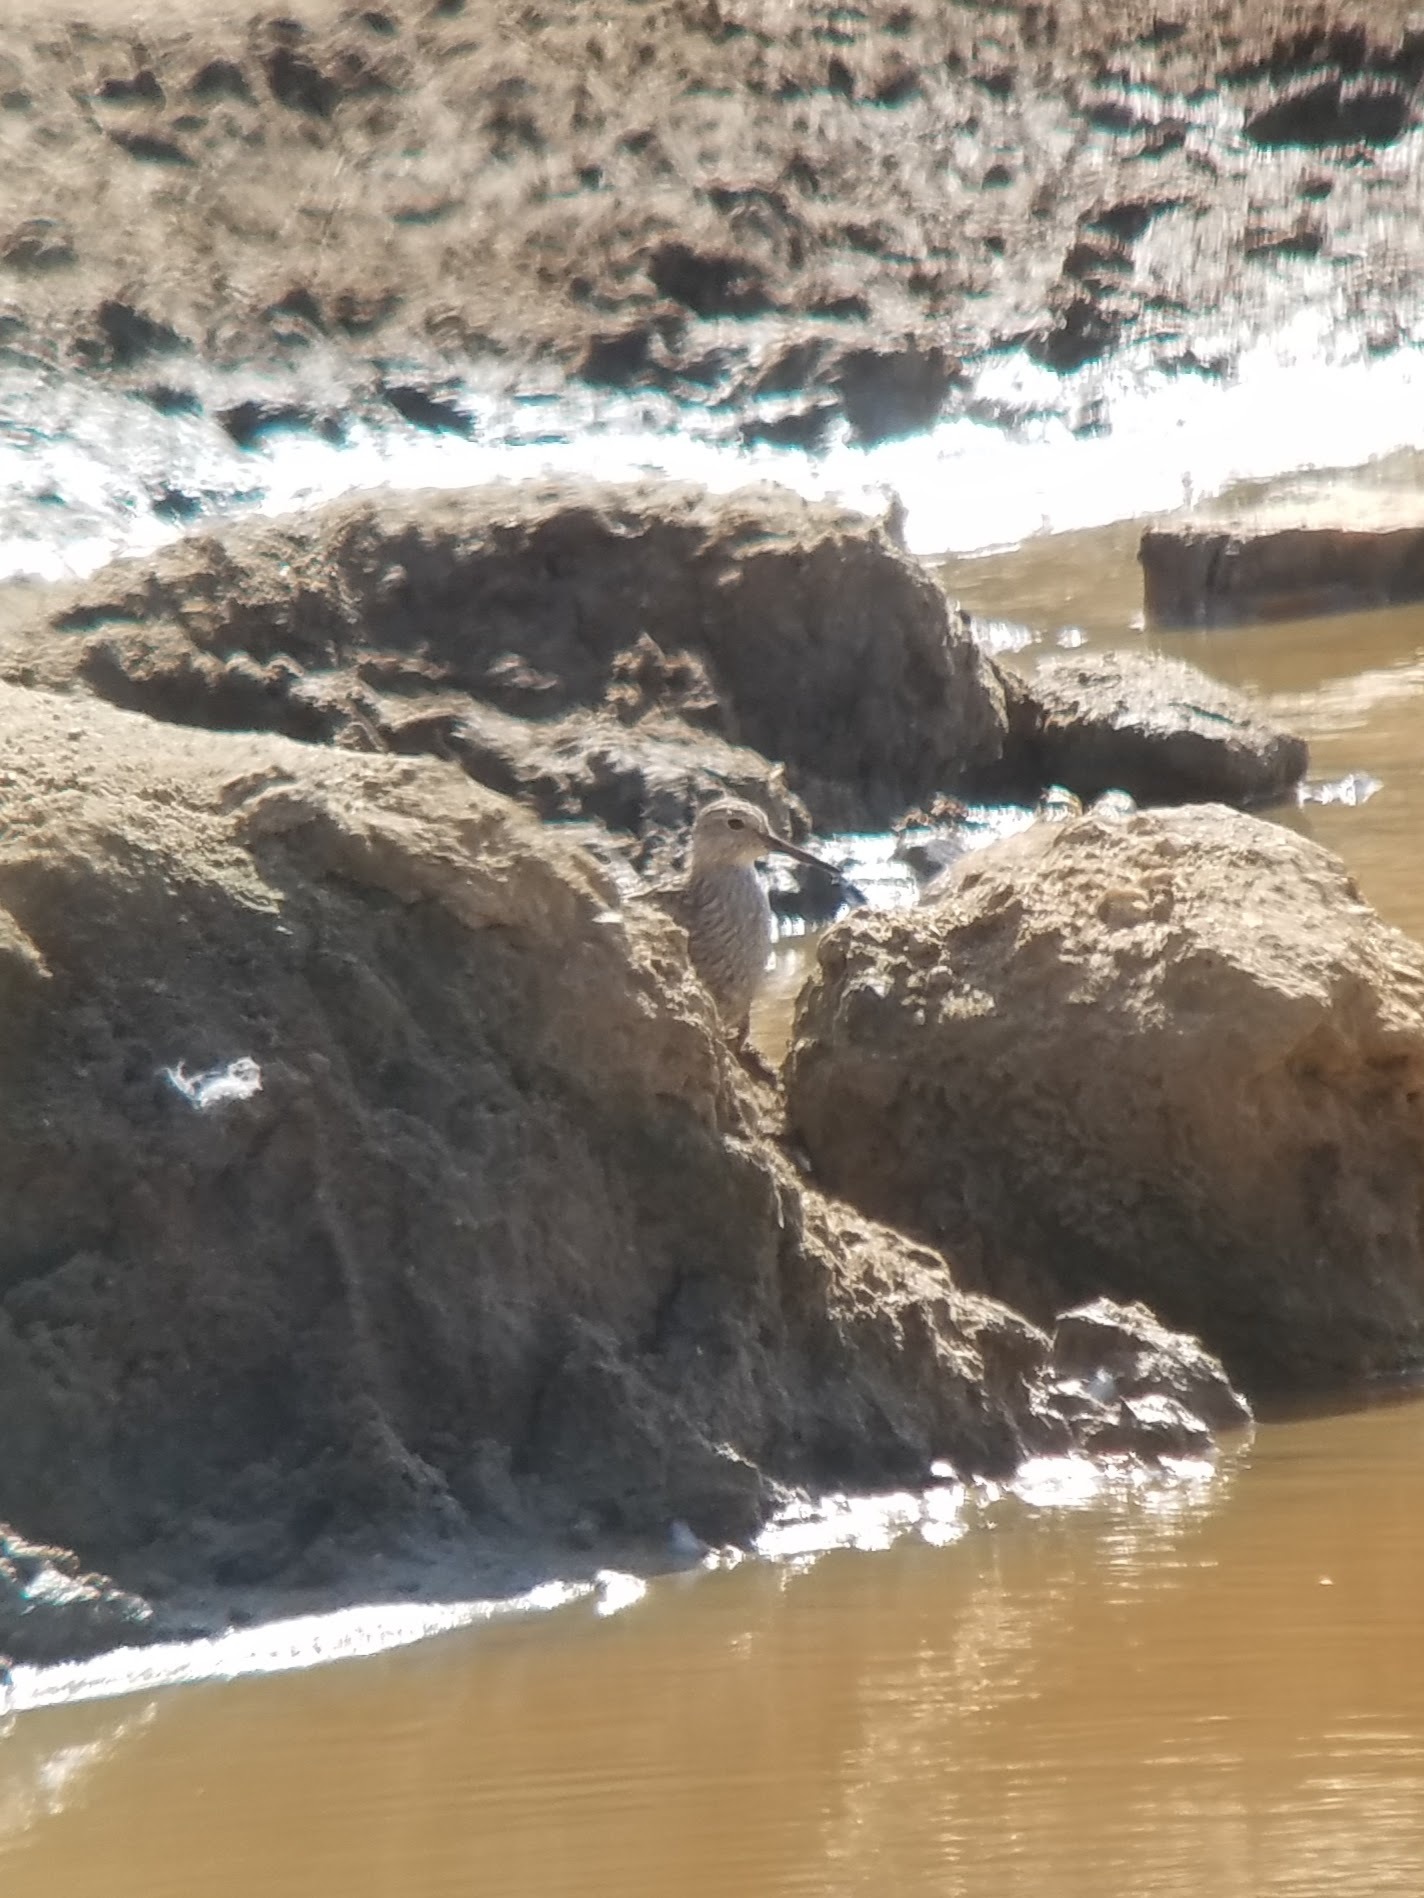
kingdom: Animalia
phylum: Chordata
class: Aves
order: Charadriiformes
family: Scolopacidae
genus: Calidris
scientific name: Calidris melanotos
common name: Pectoral sandpiper
